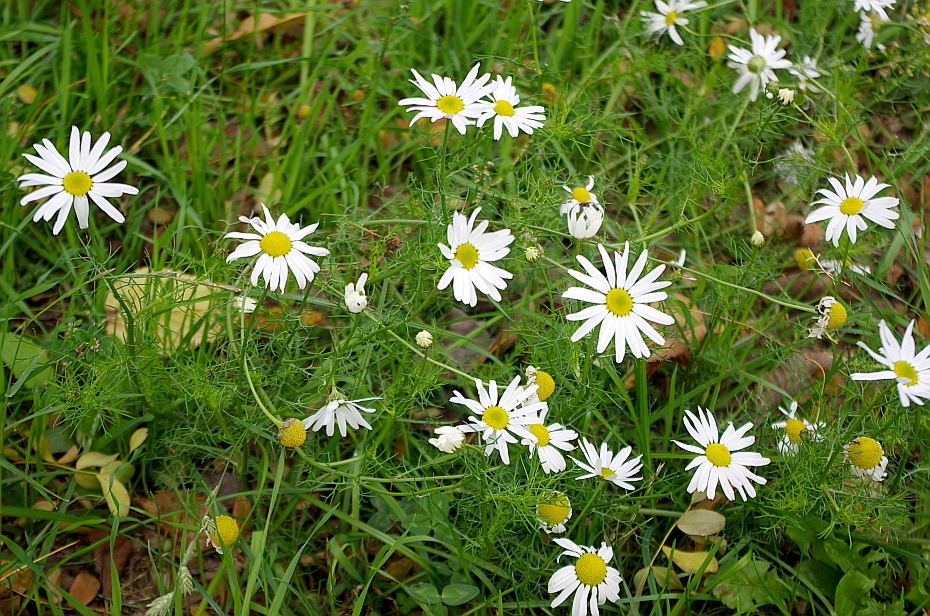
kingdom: Plantae
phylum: Tracheophyta
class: Magnoliopsida
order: Asterales
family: Asteraceae
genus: Tripleurospermum
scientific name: Tripleurospermum inodorum
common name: Scentless mayweed
